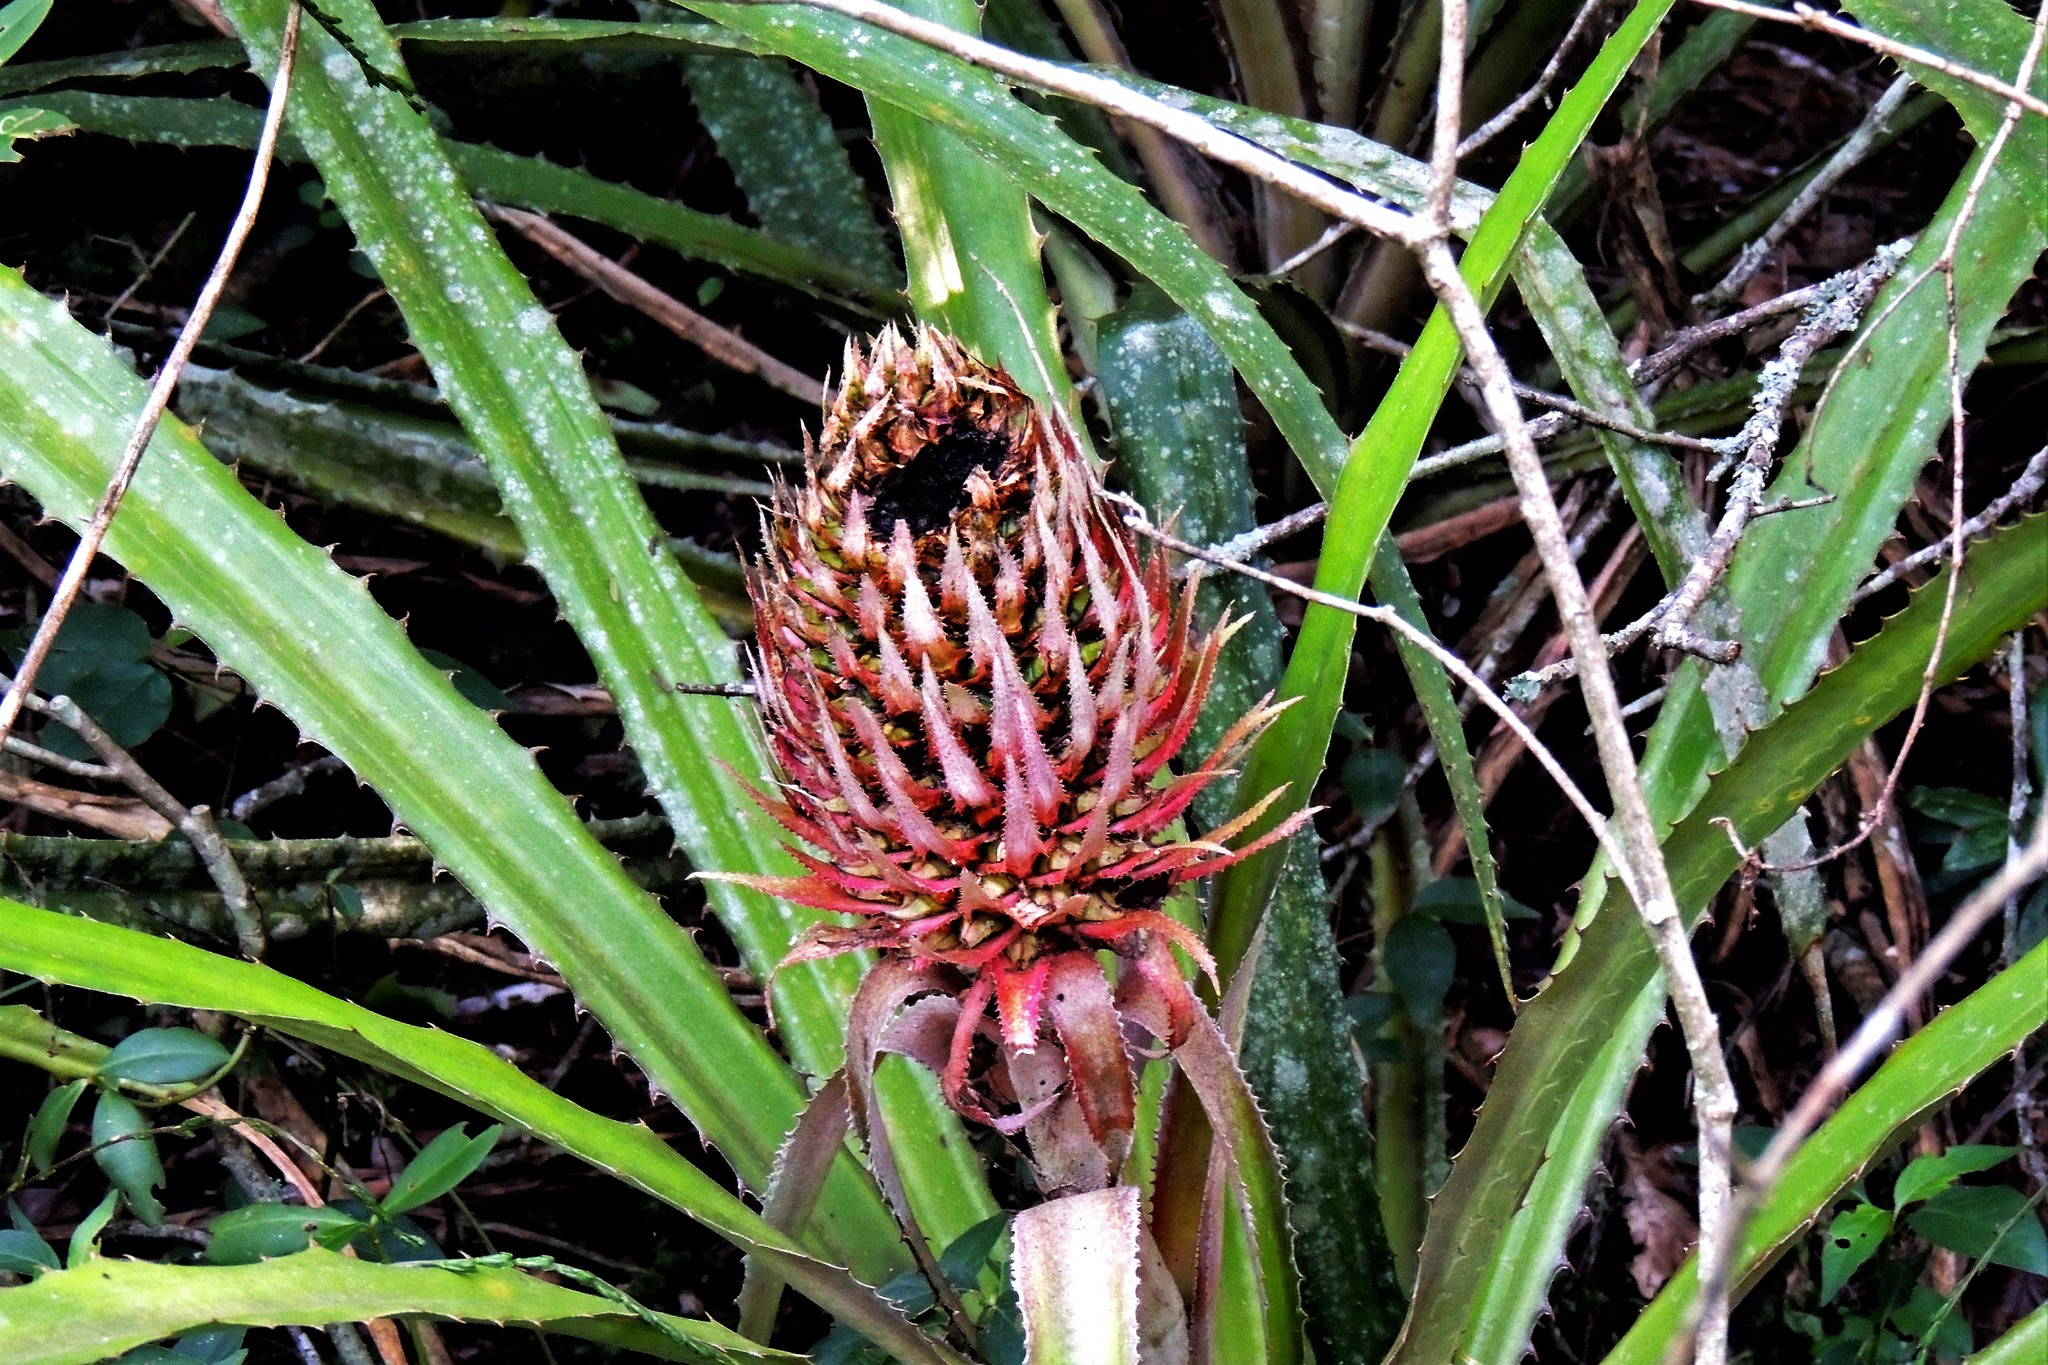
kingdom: Plantae
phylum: Tracheophyta
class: Liliopsida
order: Poales
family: Bromeliaceae
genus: Ananas
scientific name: Ananas macrodontes
